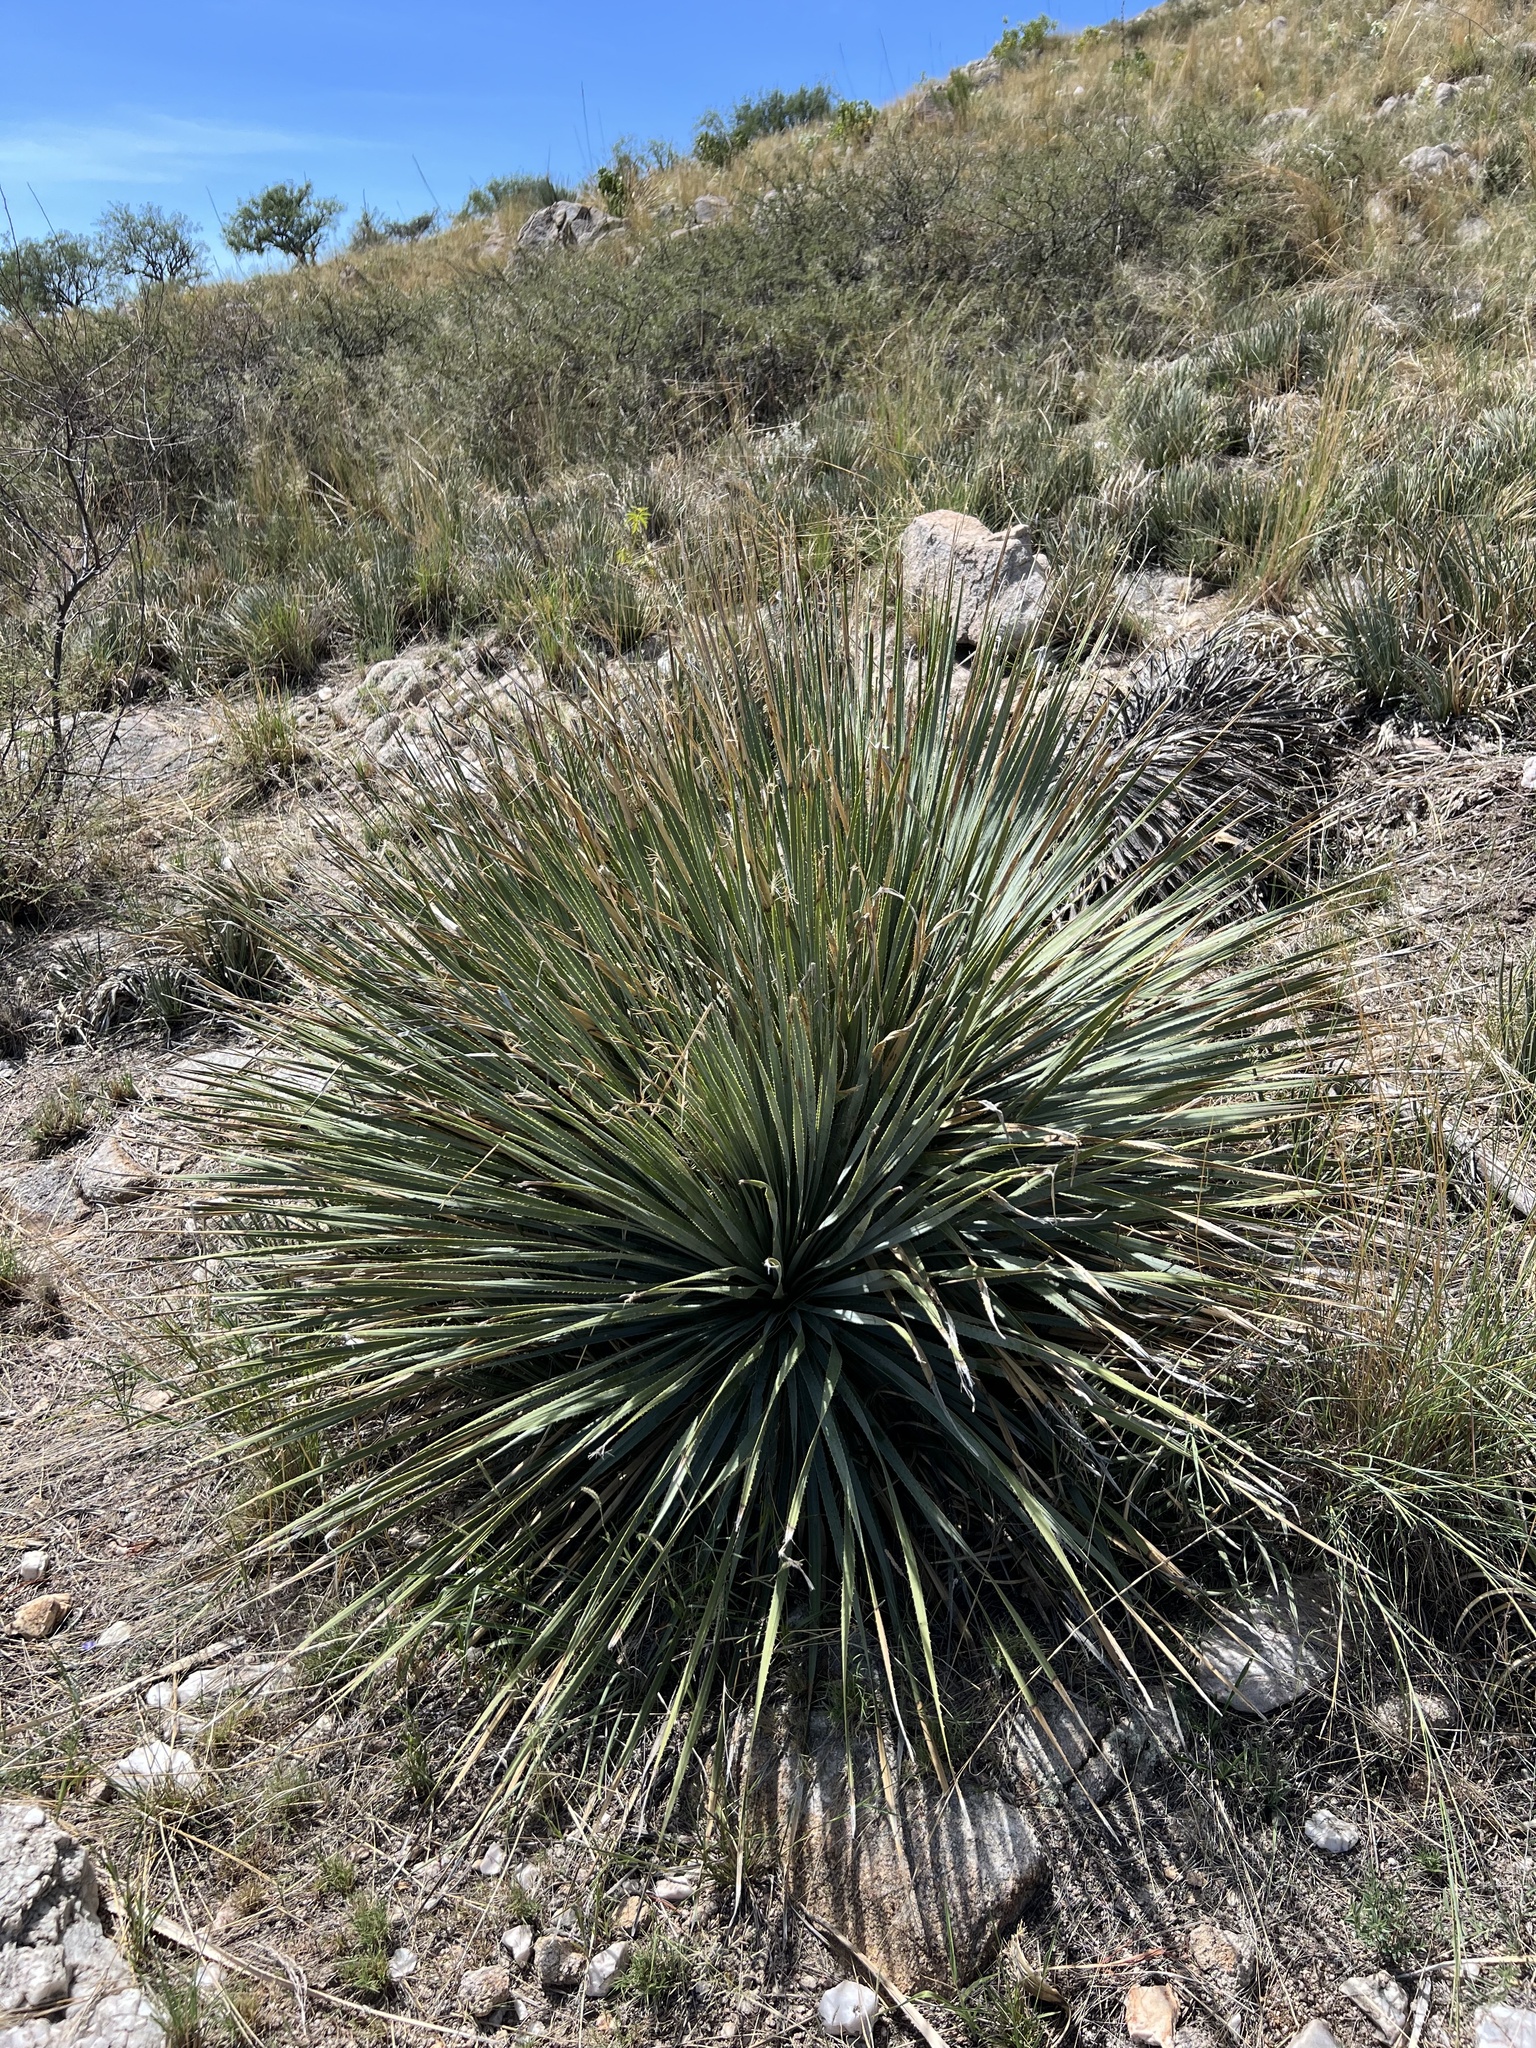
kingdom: Plantae
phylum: Tracheophyta
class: Liliopsida
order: Asparagales
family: Asparagaceae
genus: Dasylirion
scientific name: Dasylirion wheeleri
